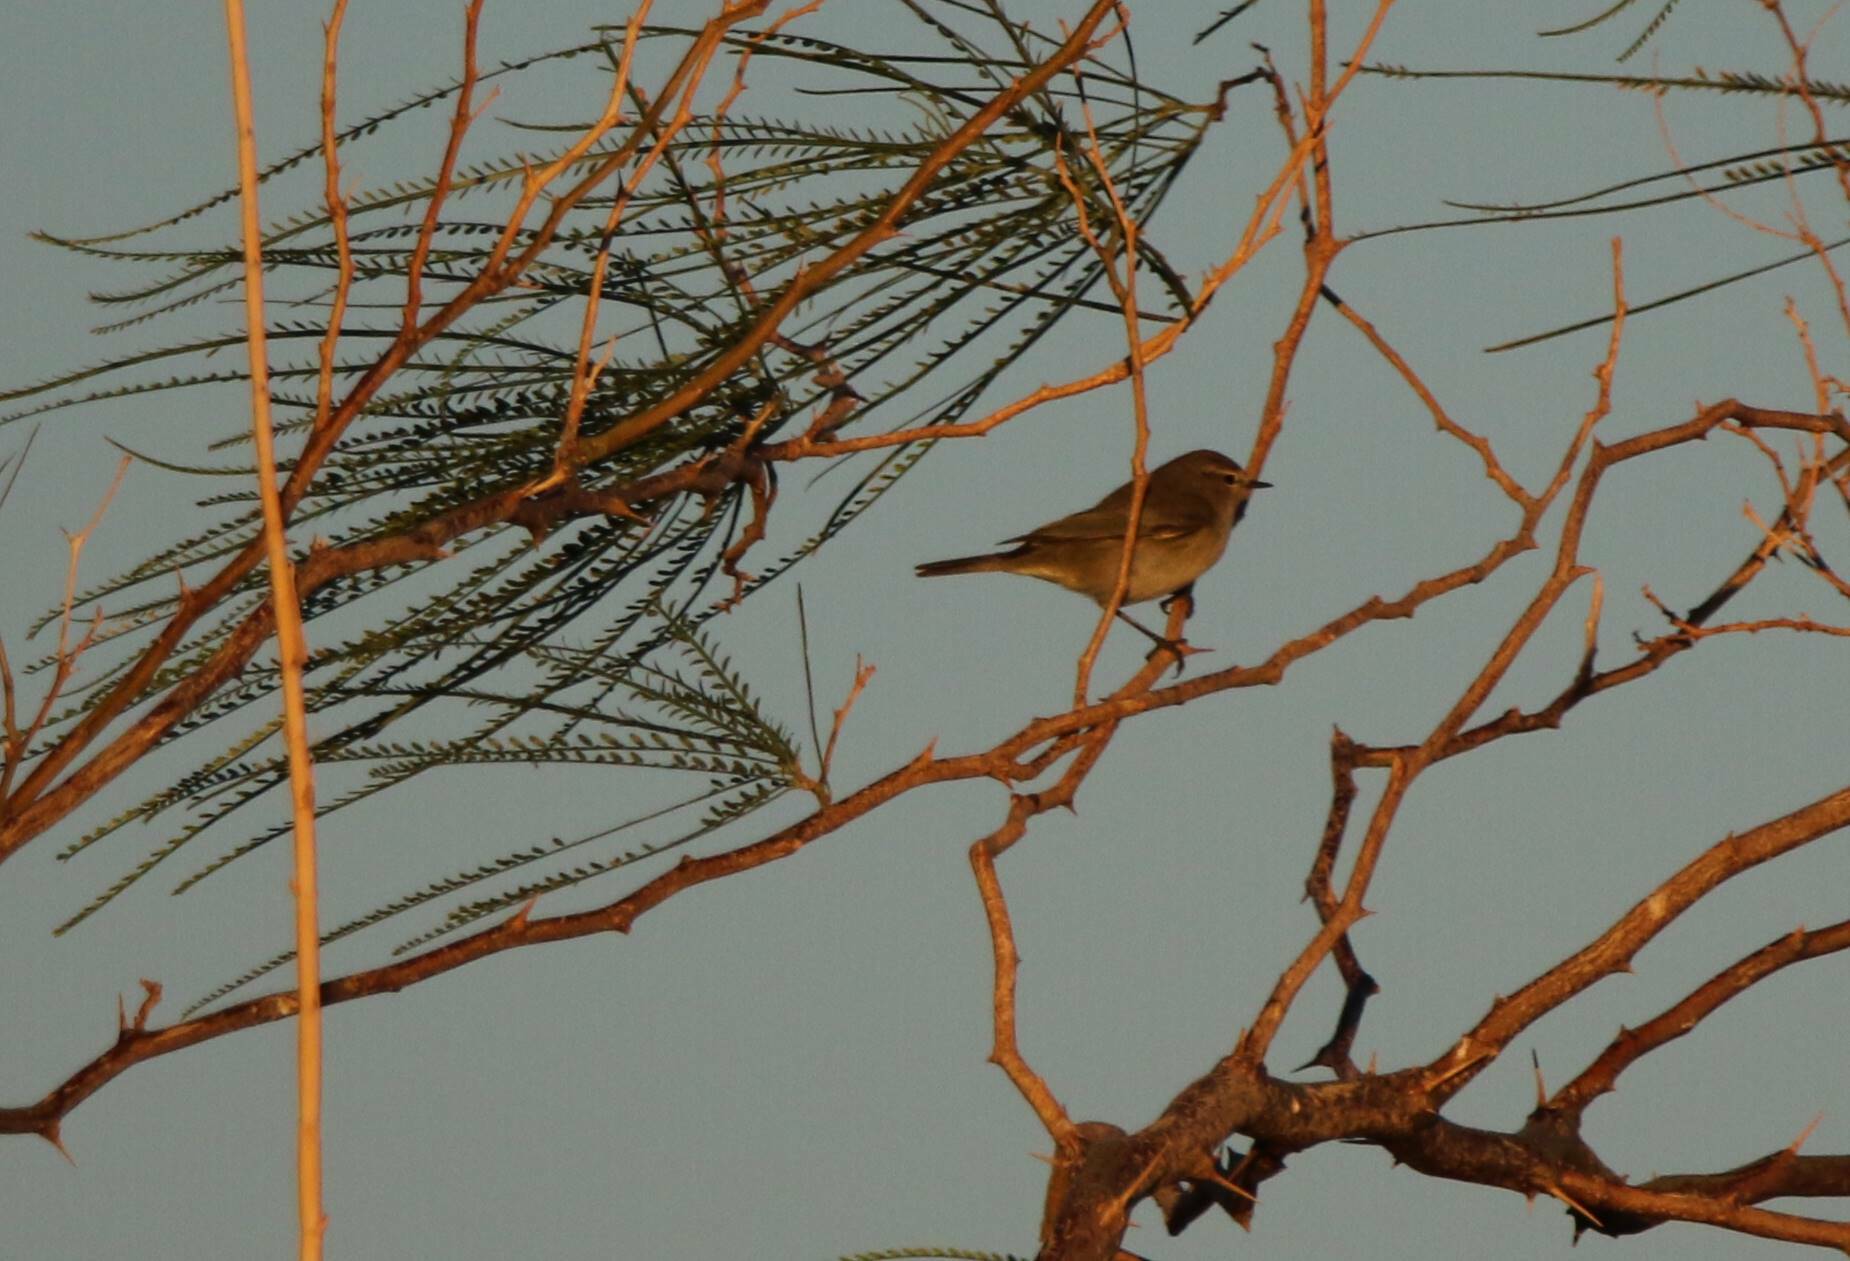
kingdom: Animalia
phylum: Chordata
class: Aves
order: Passeriformes
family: Phylloscopidae
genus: Phylloscopus
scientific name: Phylloscopus collybita
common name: Common chiffchaff
